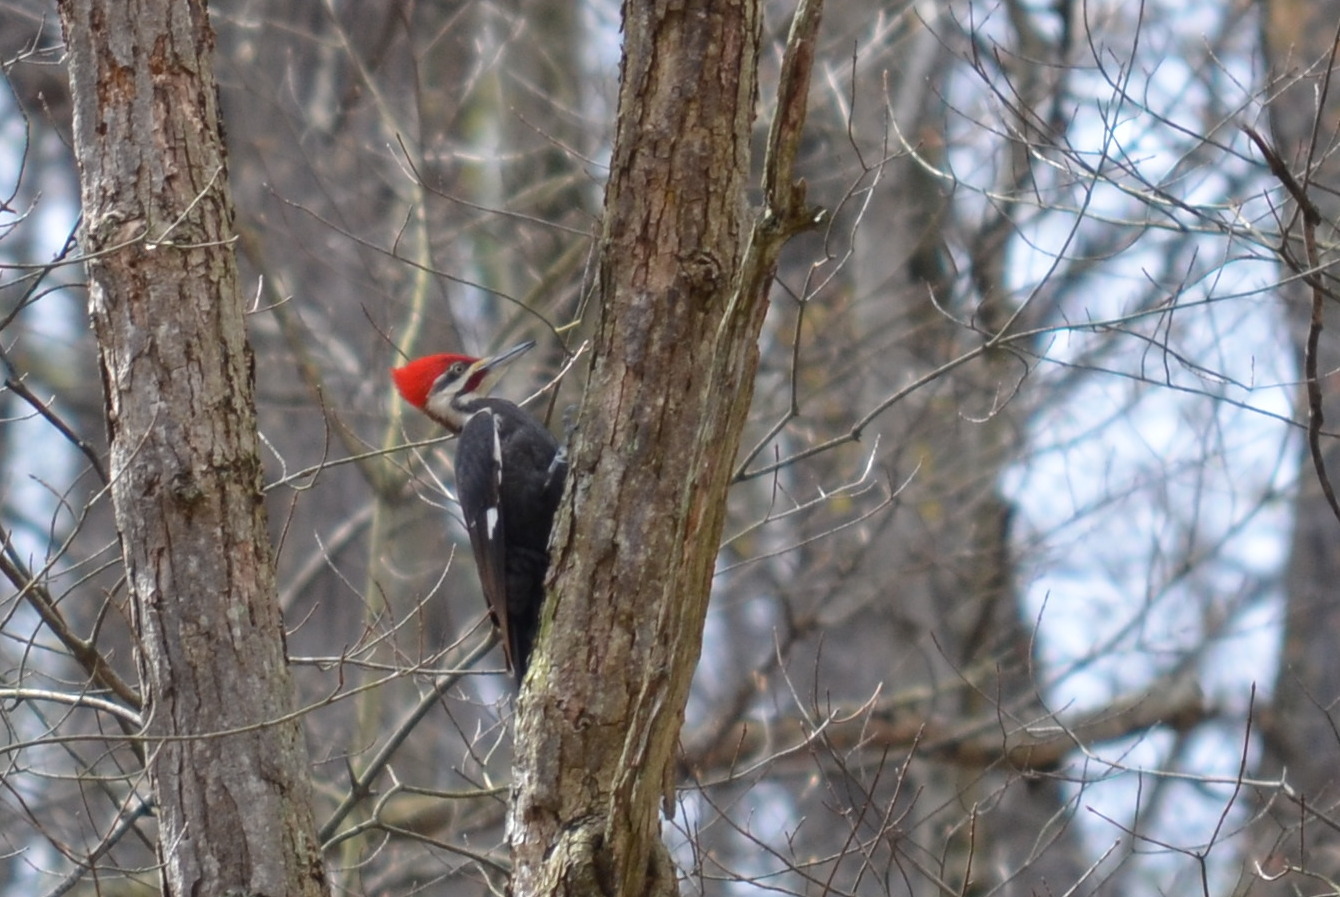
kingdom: Animalia
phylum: Chordata
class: Aves
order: Piciformes
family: Picidae
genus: Dryocopus
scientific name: Dryocopus pileatus
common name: Pileated woodpecker
